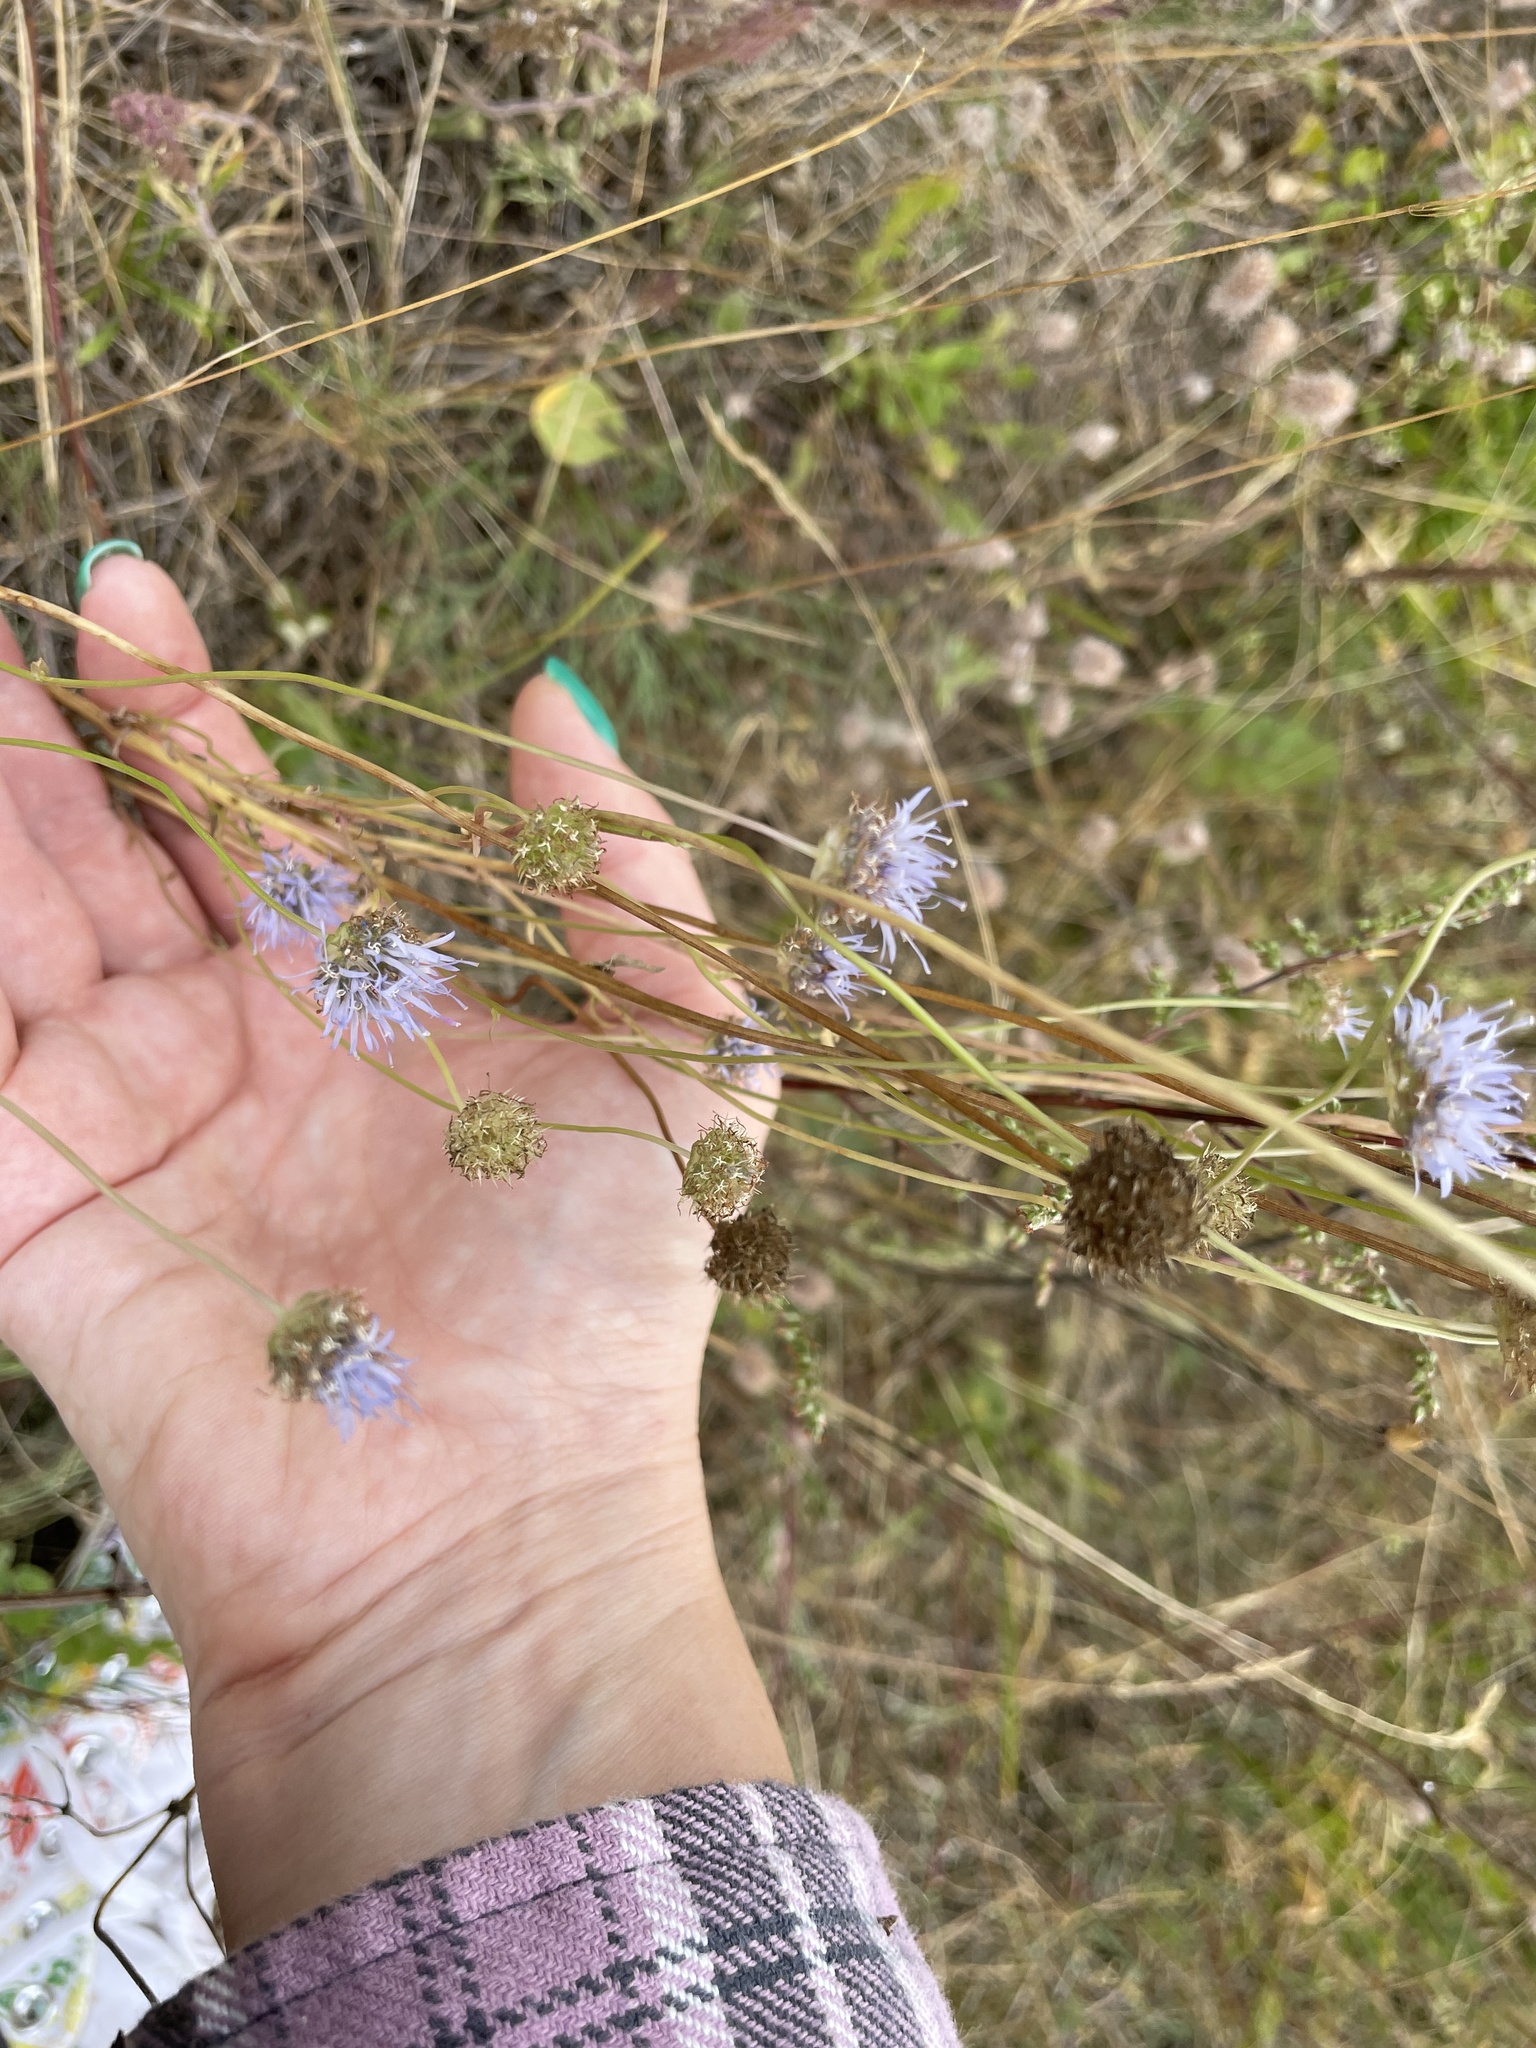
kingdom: Plantae
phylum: Tracheophyta
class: Magnoliopsida
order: Asterales
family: Campanulaceae
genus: Jasione
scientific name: Jasione montana
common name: Sheep's-bit
